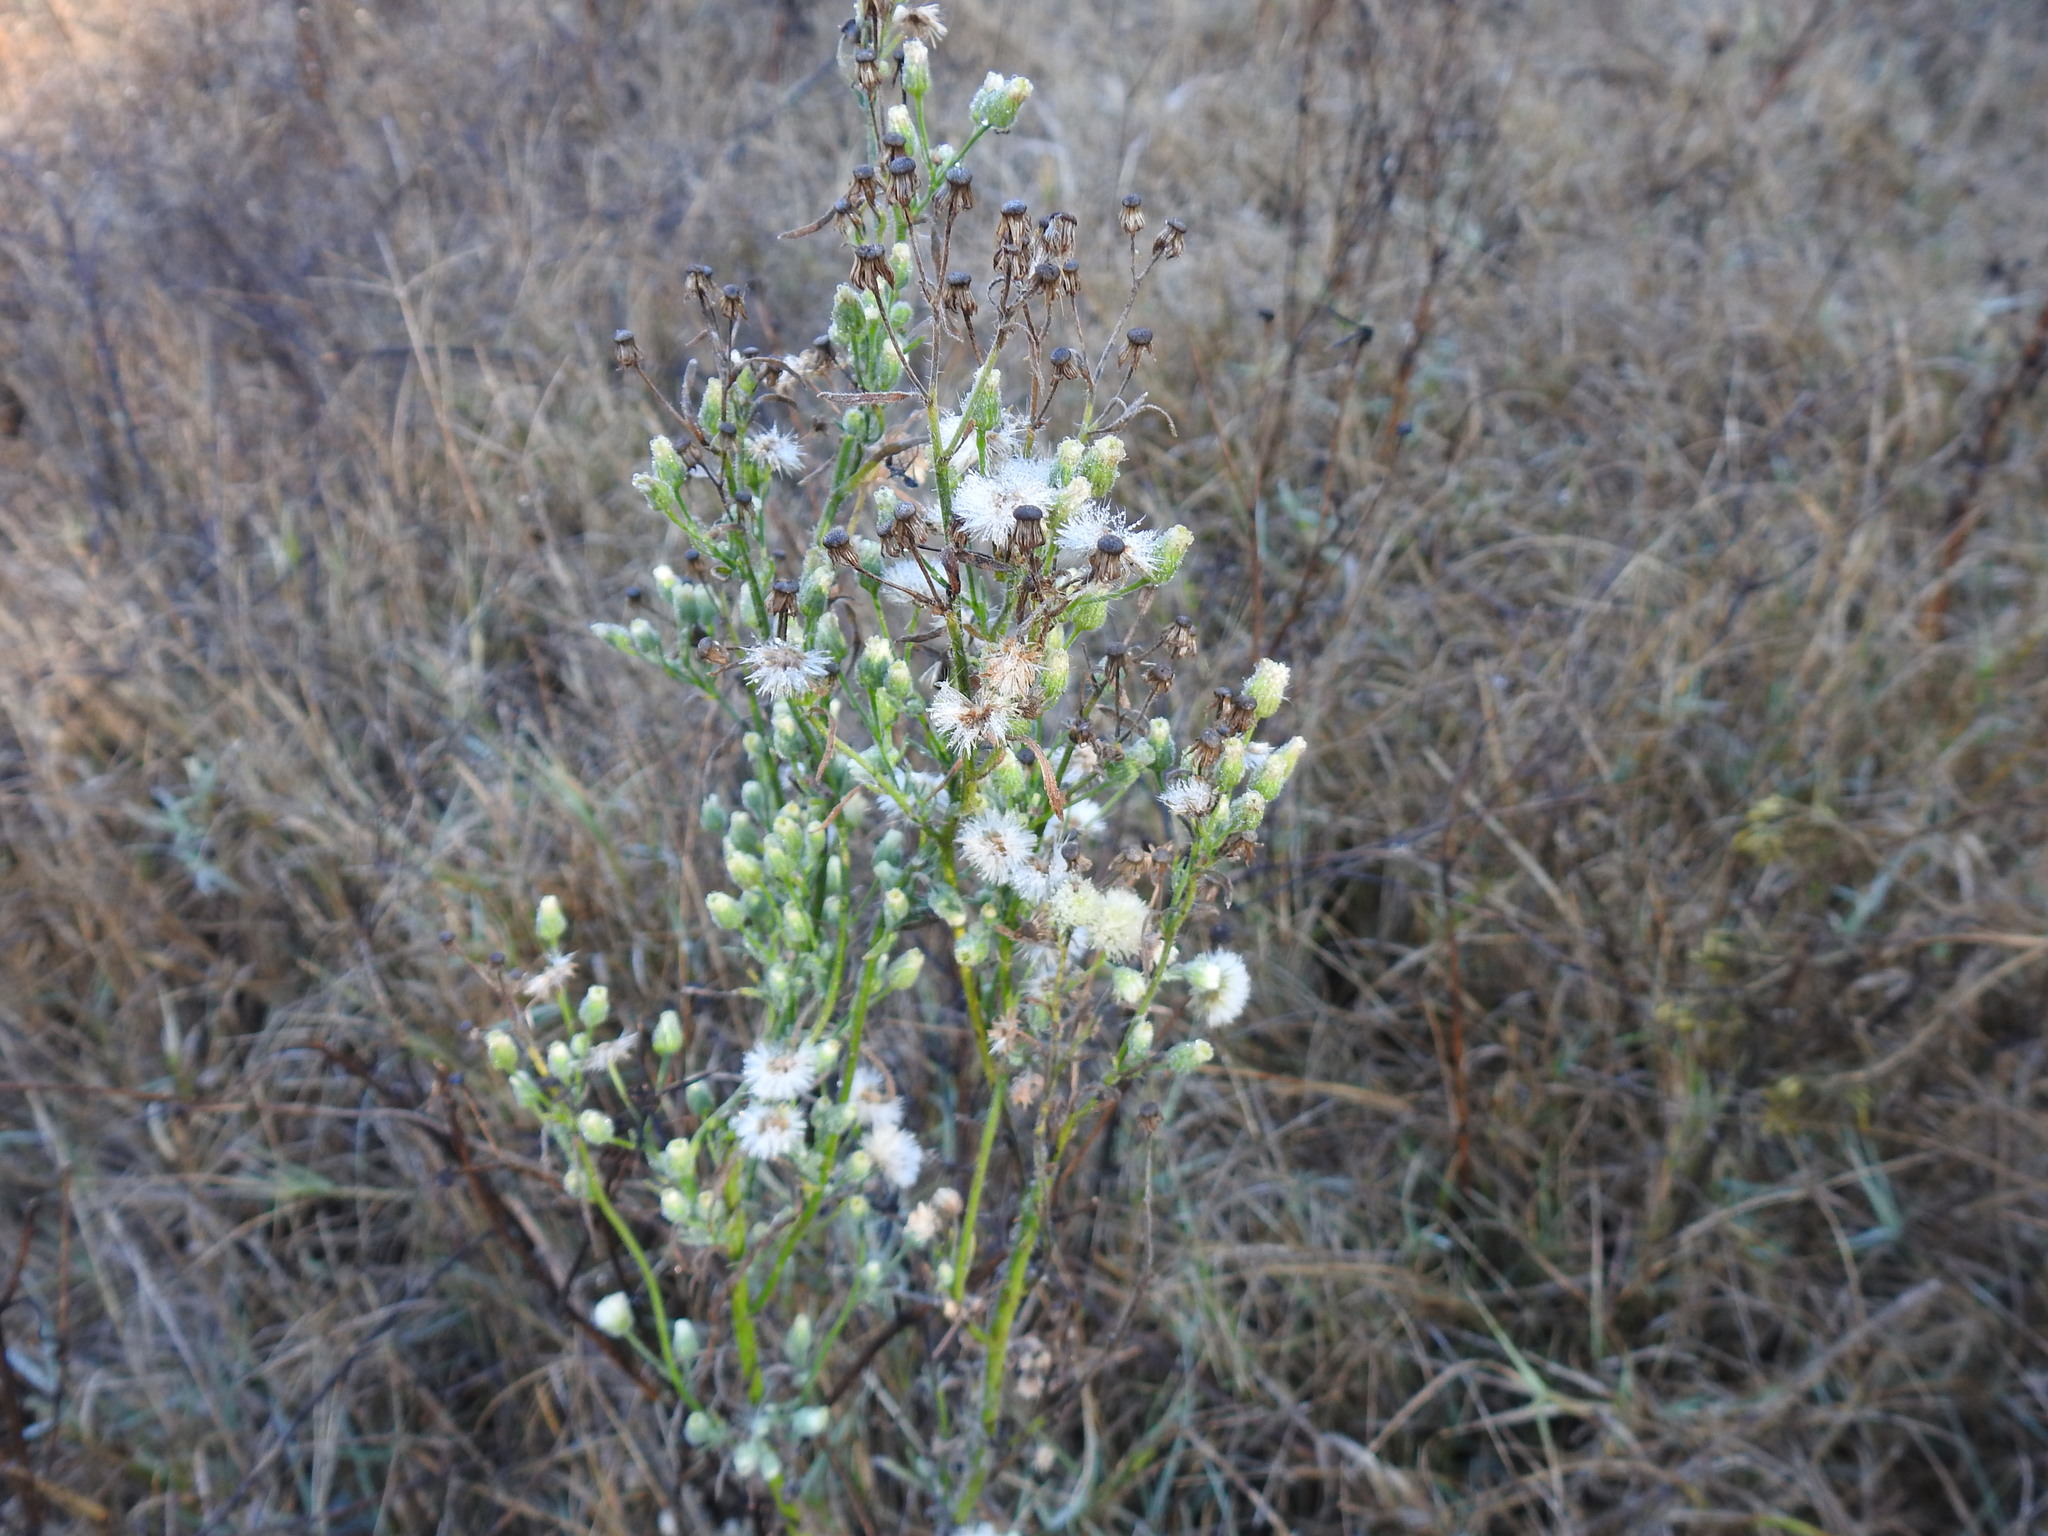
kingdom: Plantae
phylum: Tracheophyta
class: Magnoliopsida
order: Asterales
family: Asteraceae
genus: Erigeron
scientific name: Erigeron sumatrensis
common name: Daisy
